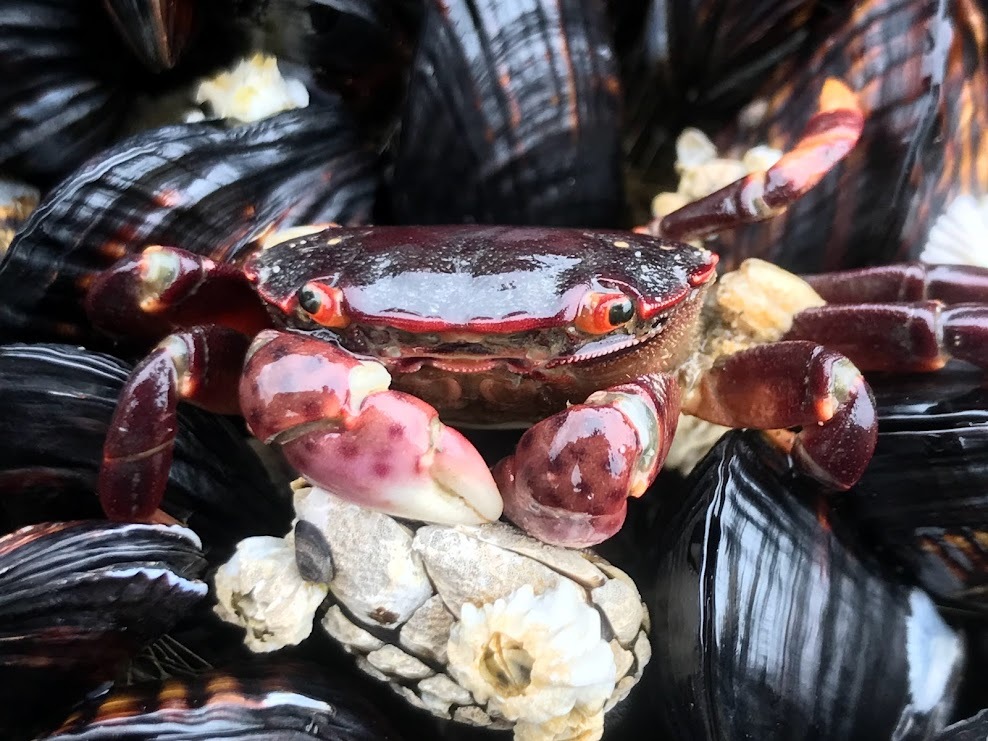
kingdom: Animalia
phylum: Arthropoda
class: Malacostraca
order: Decapoda
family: Varunidae
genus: Hemigrapsus
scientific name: Hemigrapsus nudus
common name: Purple shore crab
